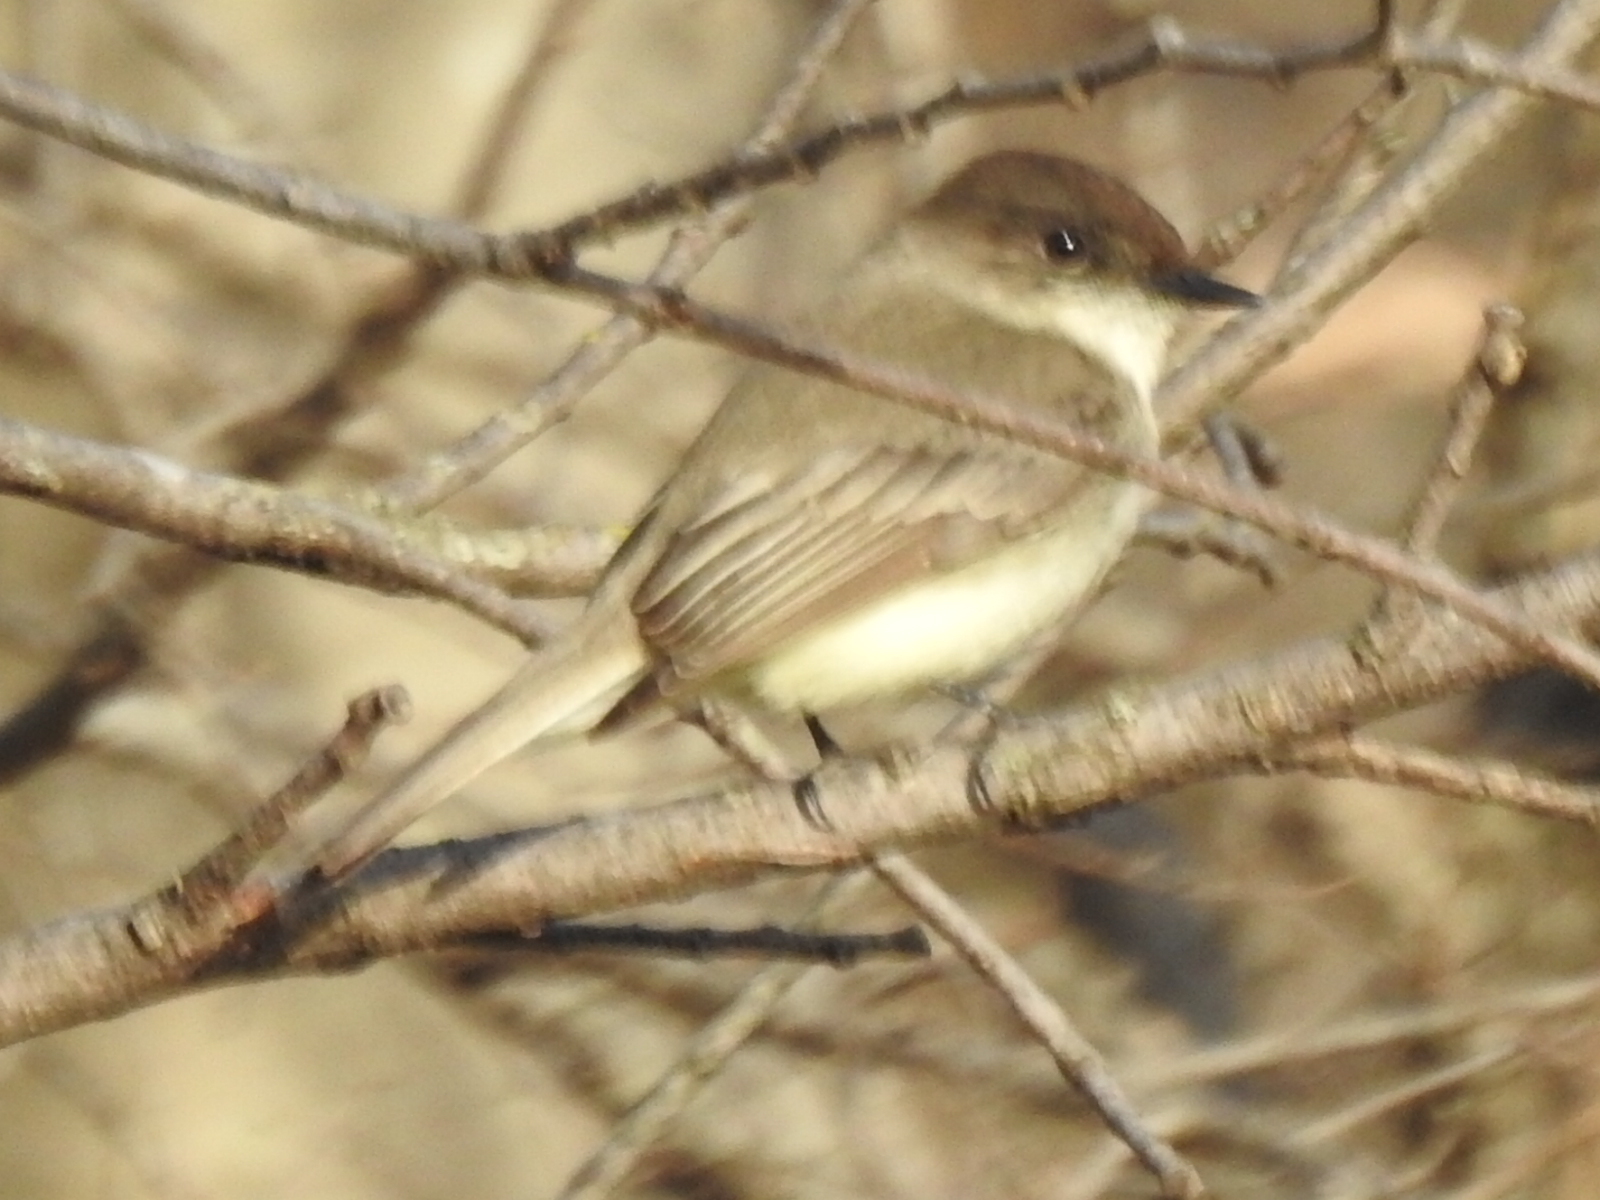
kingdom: Animalia
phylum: Chordata
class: Aves
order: Passeriformes
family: Tyrannidae
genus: Sayornis
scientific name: Sayornis phoebe
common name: Eastern phoebe
